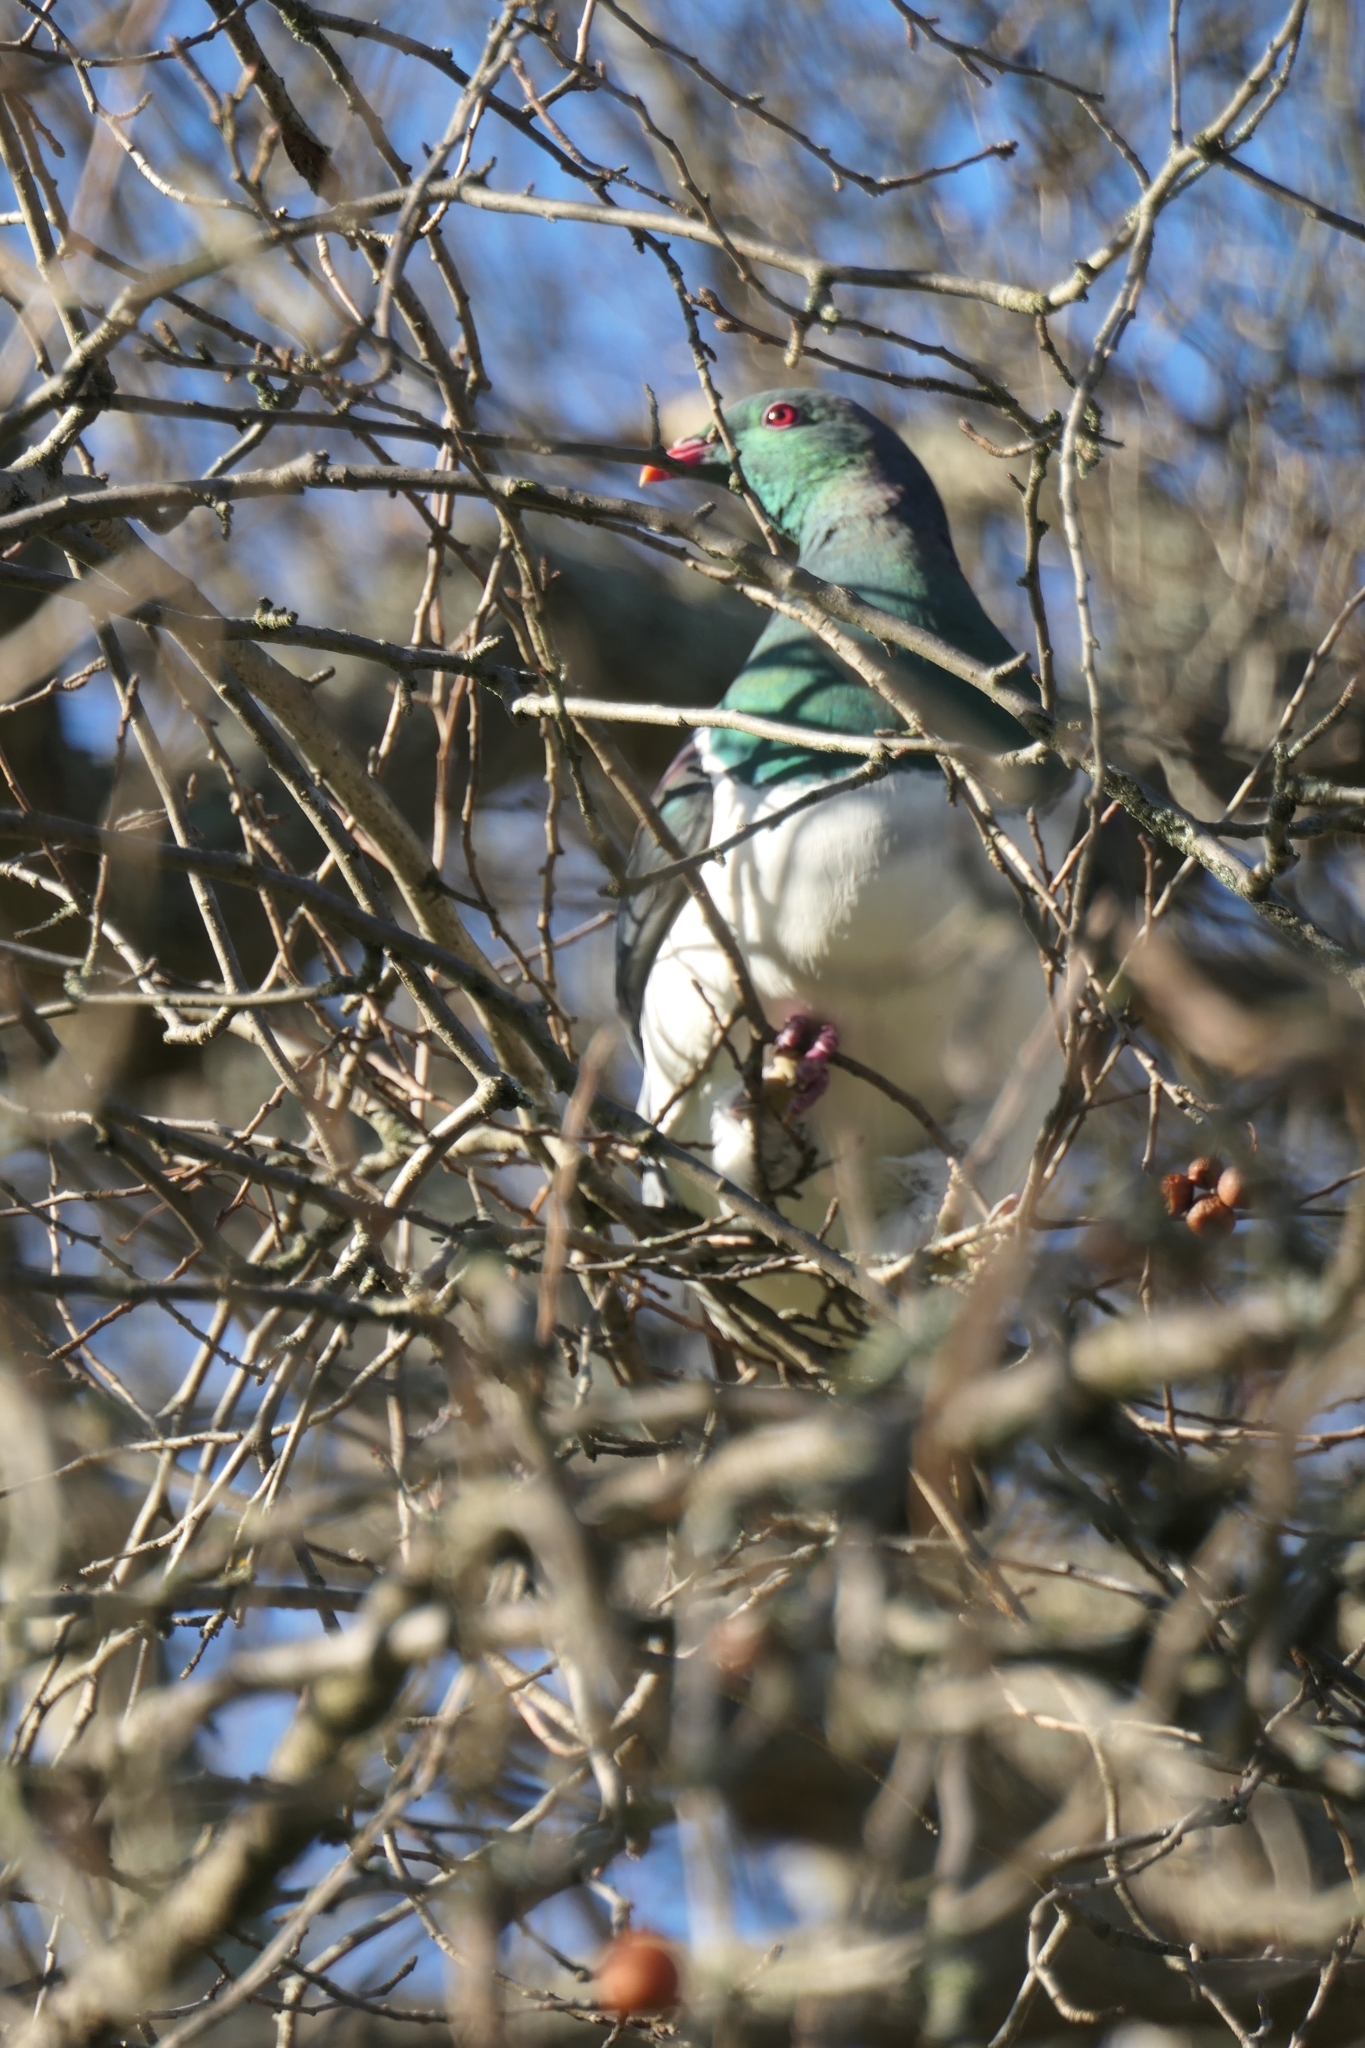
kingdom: Animalia
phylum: Chordata
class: Aves
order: Columbiformes
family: Columbidae
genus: Hemiphaga
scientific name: Hemiphaga novaeseelandiae
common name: New zealand pigeon
